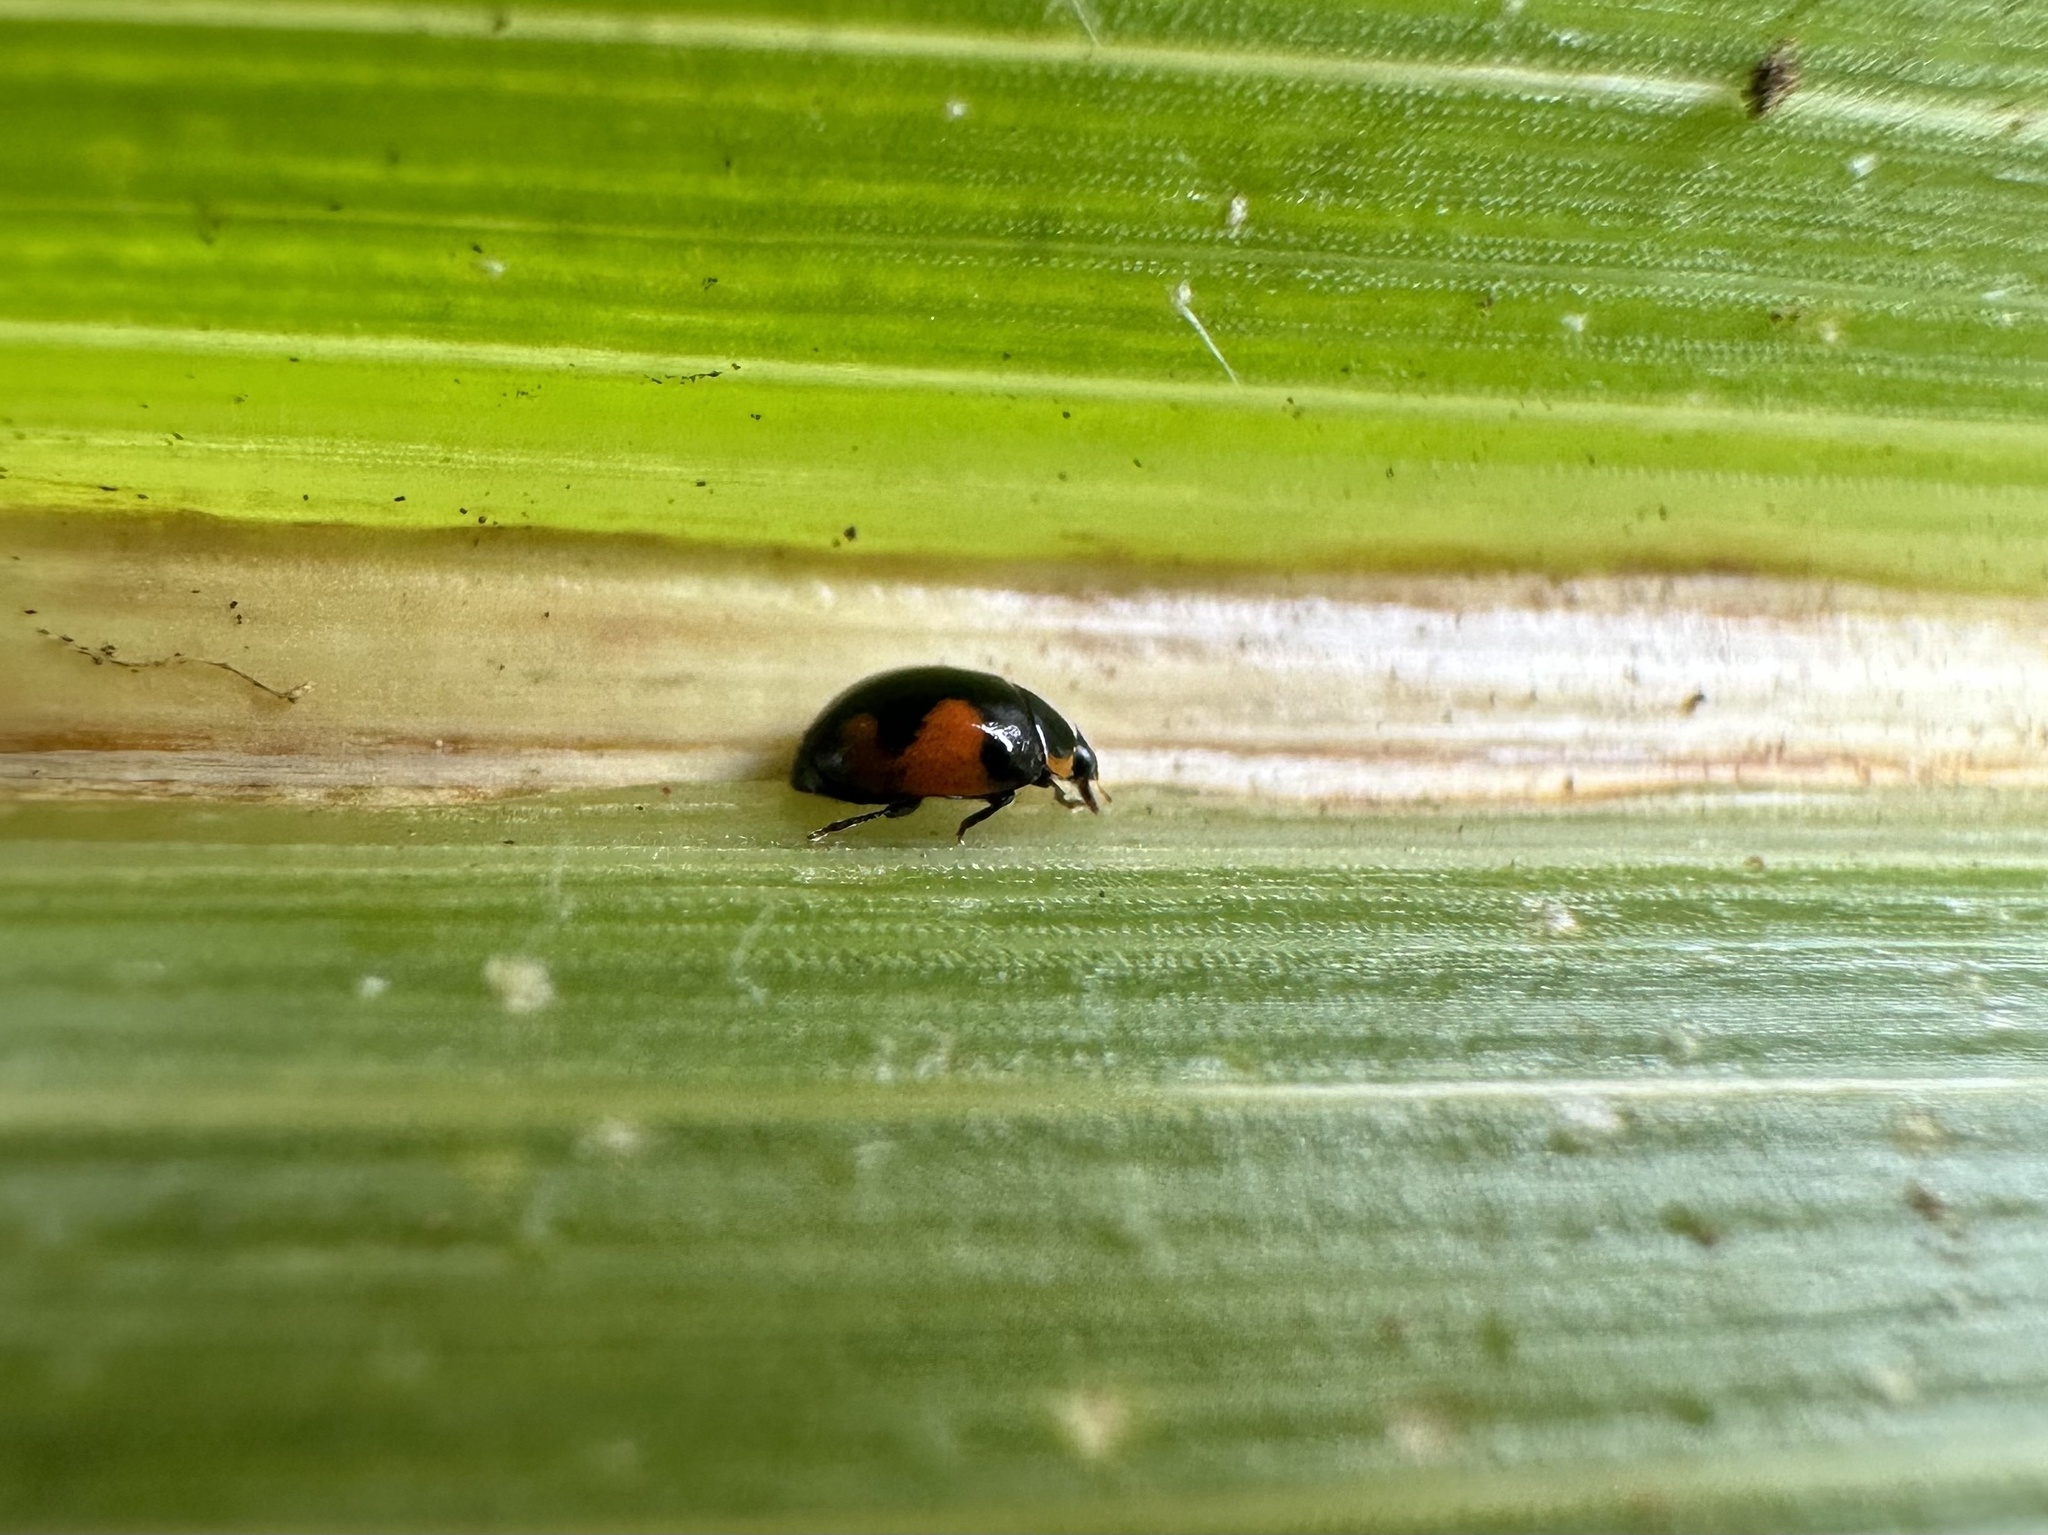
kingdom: Animalia
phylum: Arthropoda
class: Insecta
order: Coleoptera
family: Coccinellidae
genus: Hyperaspis
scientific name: Hyperaspis
